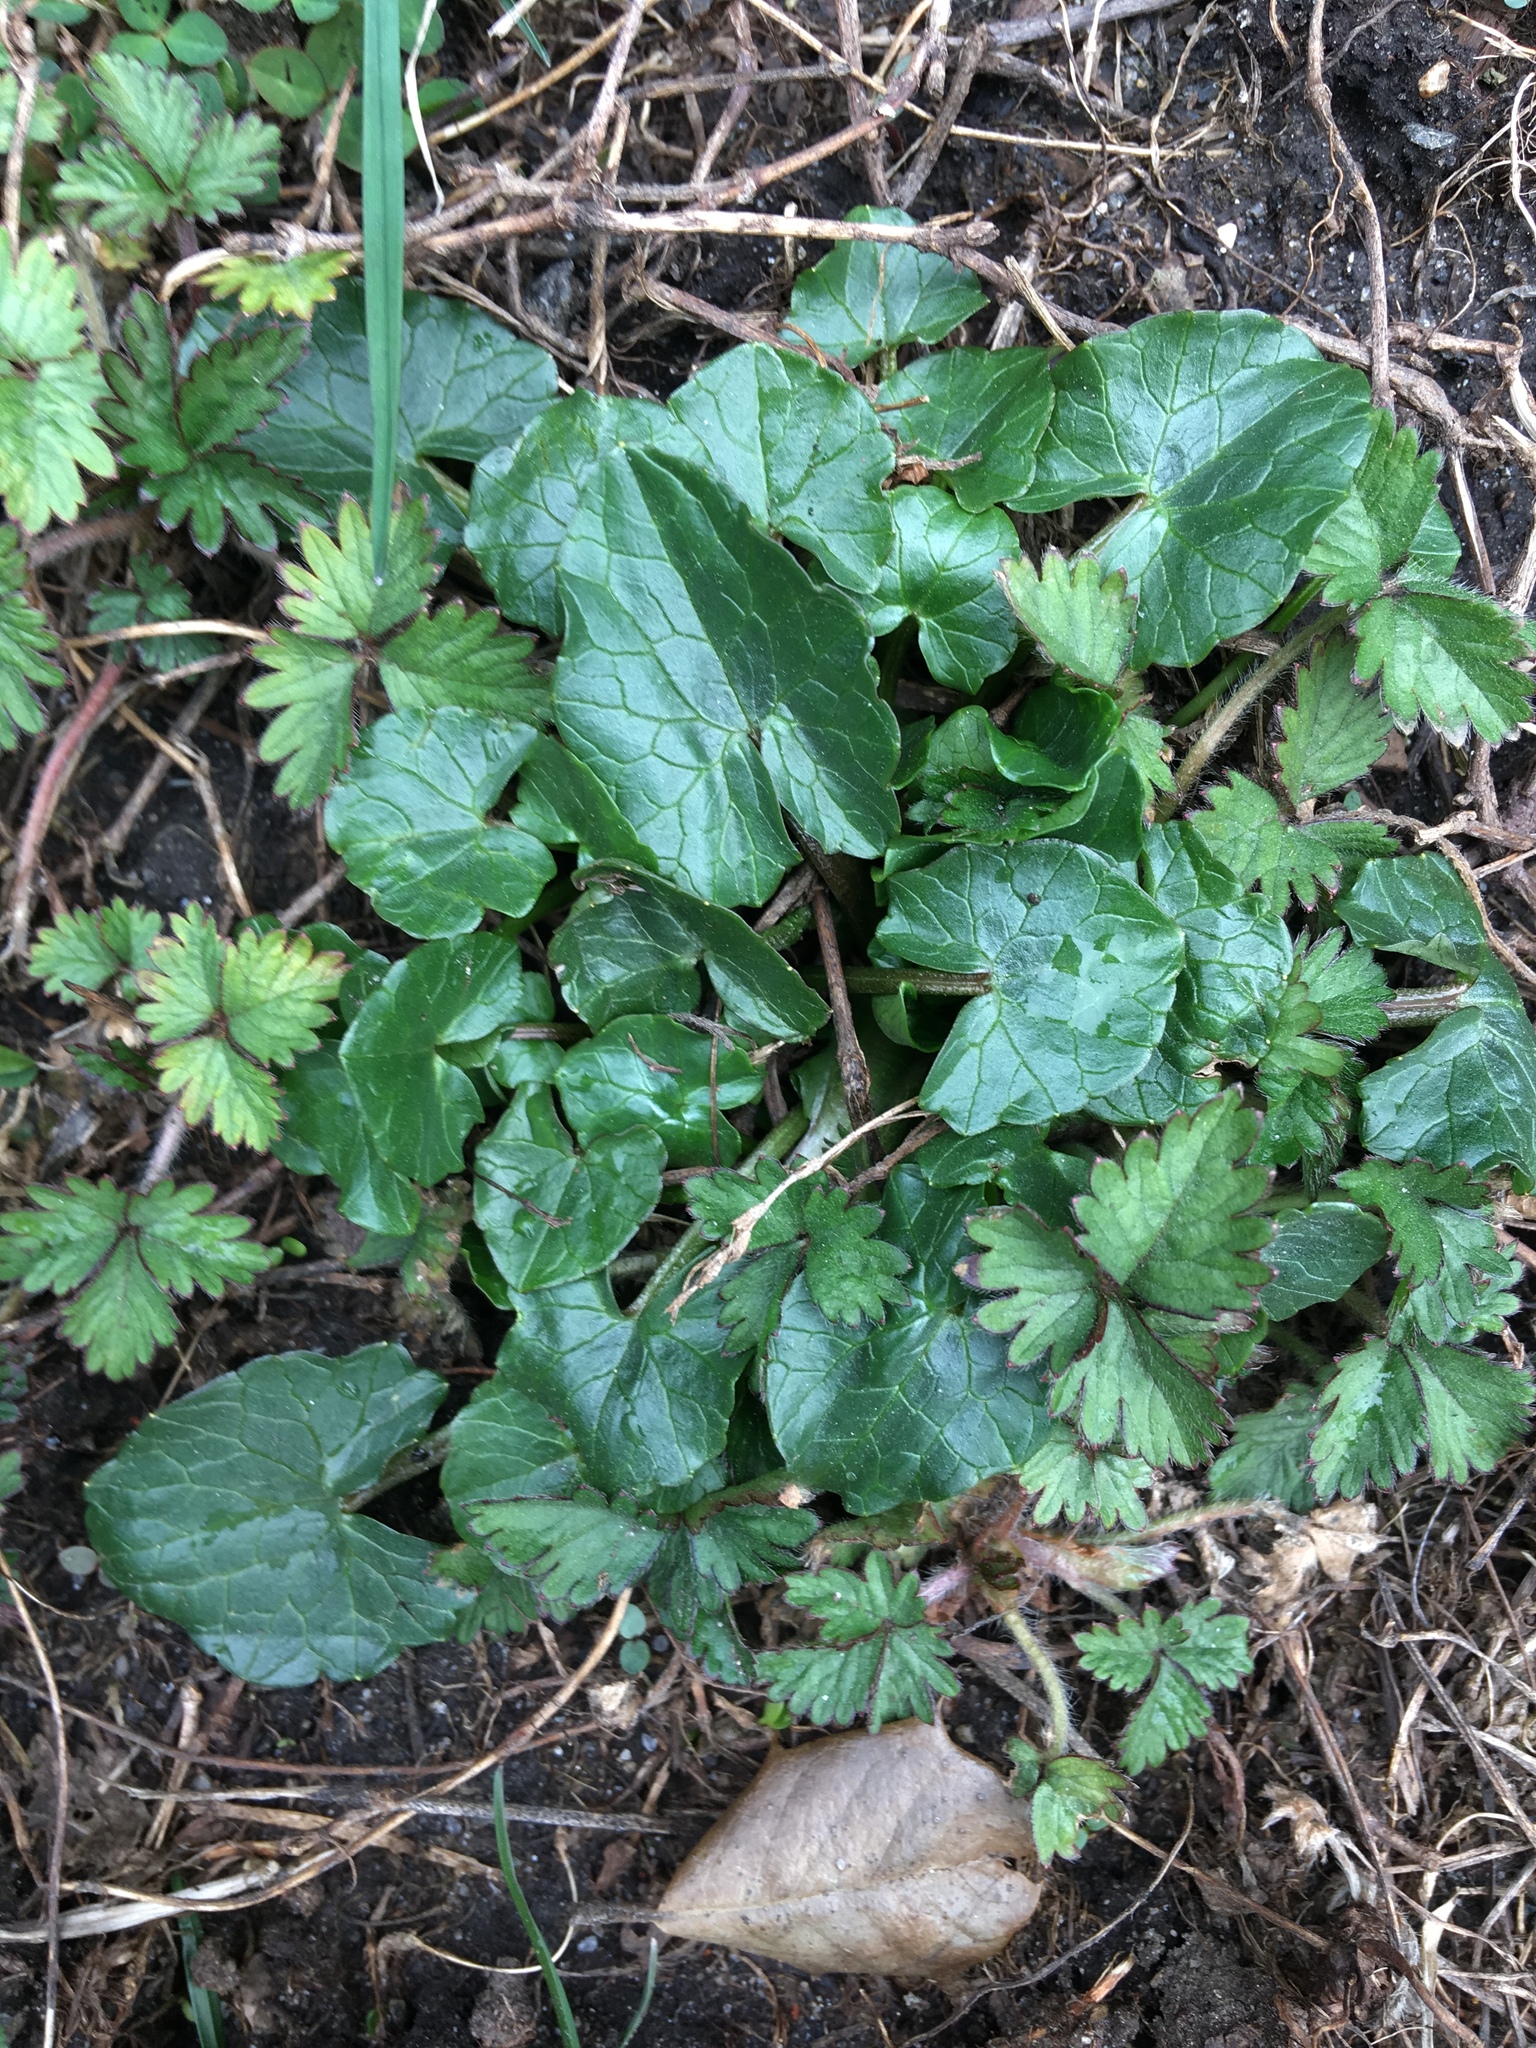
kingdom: Plantae
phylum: Tracheophyta
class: Magnoliopsida
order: Ranunculales
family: Ranunculaceae
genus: Ficaria
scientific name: Ficaria verna
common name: Lesser celandine
